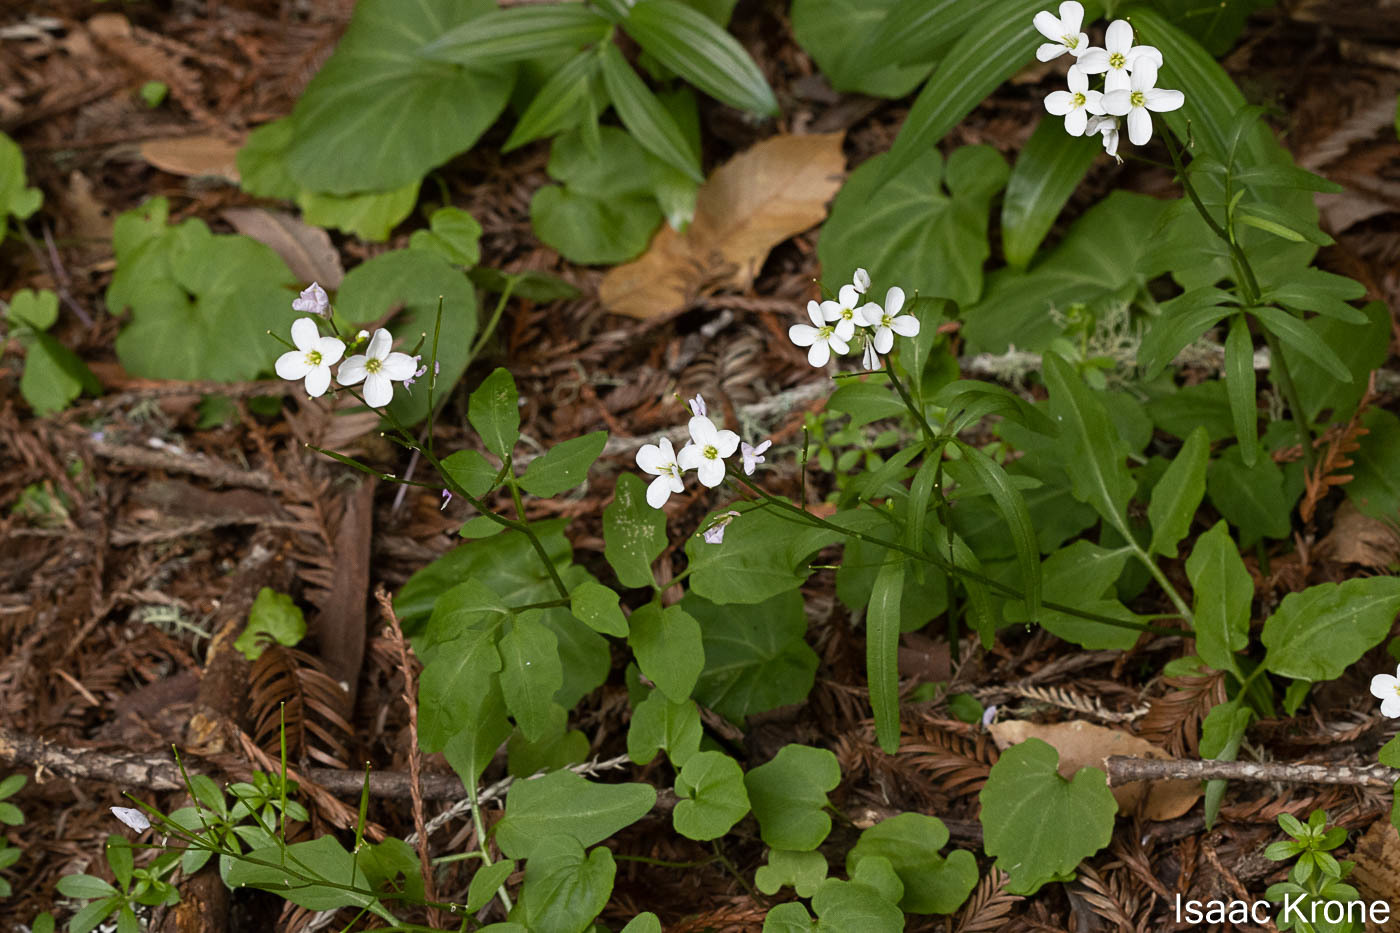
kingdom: Plantae
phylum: Tracheophyta
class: Magnoliopsida
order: Brassicales
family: Brassicaceae
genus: Cardamine
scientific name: Cardamine californica
